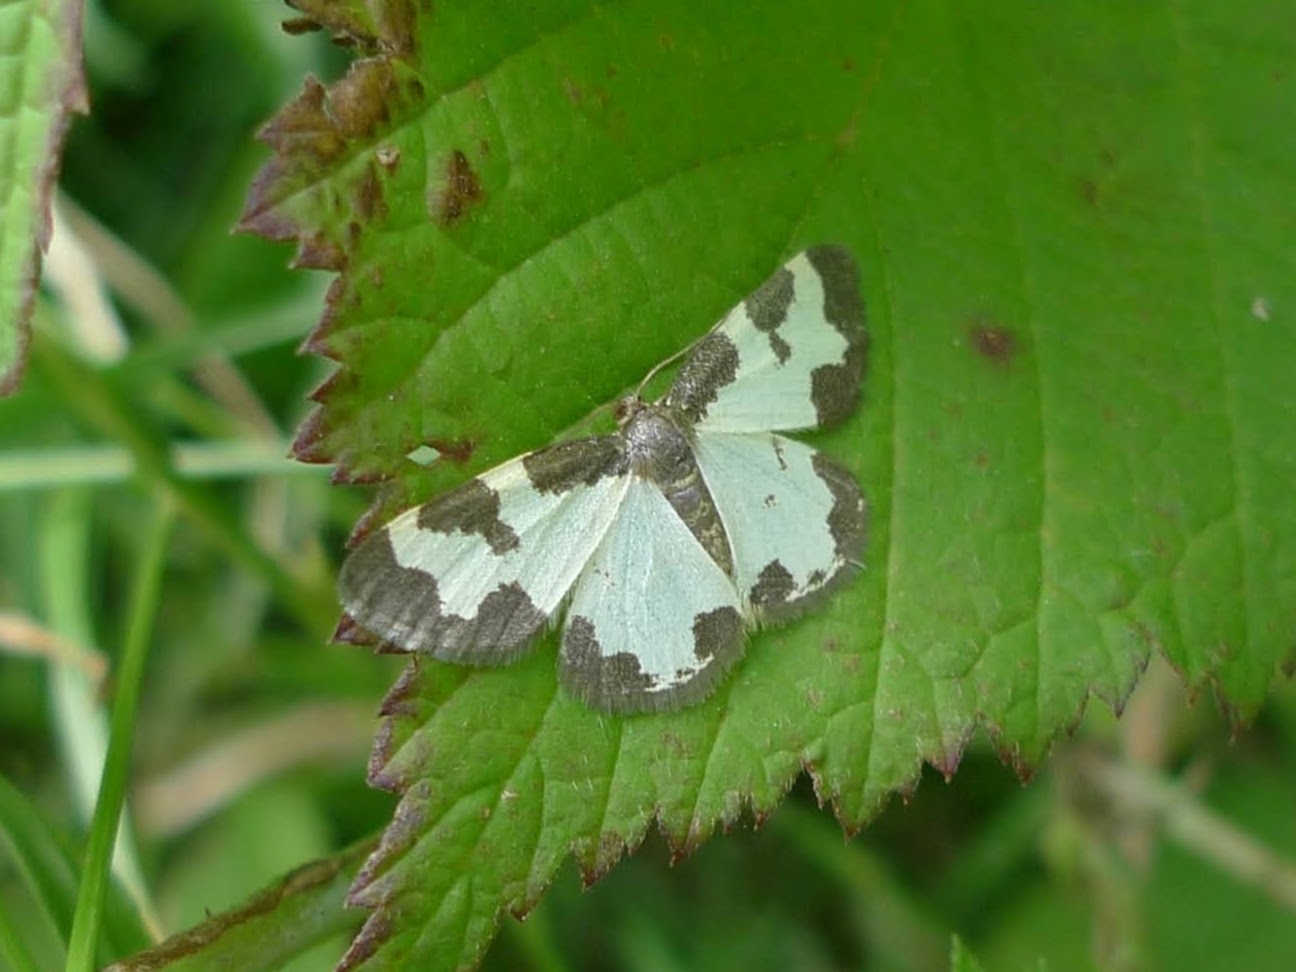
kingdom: Animalia
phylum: Arthropoda
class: Insecta
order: Lepidoptera
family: Geometridae
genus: Lomaspilis
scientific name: Lomaspilis marginata
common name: Clouded border
